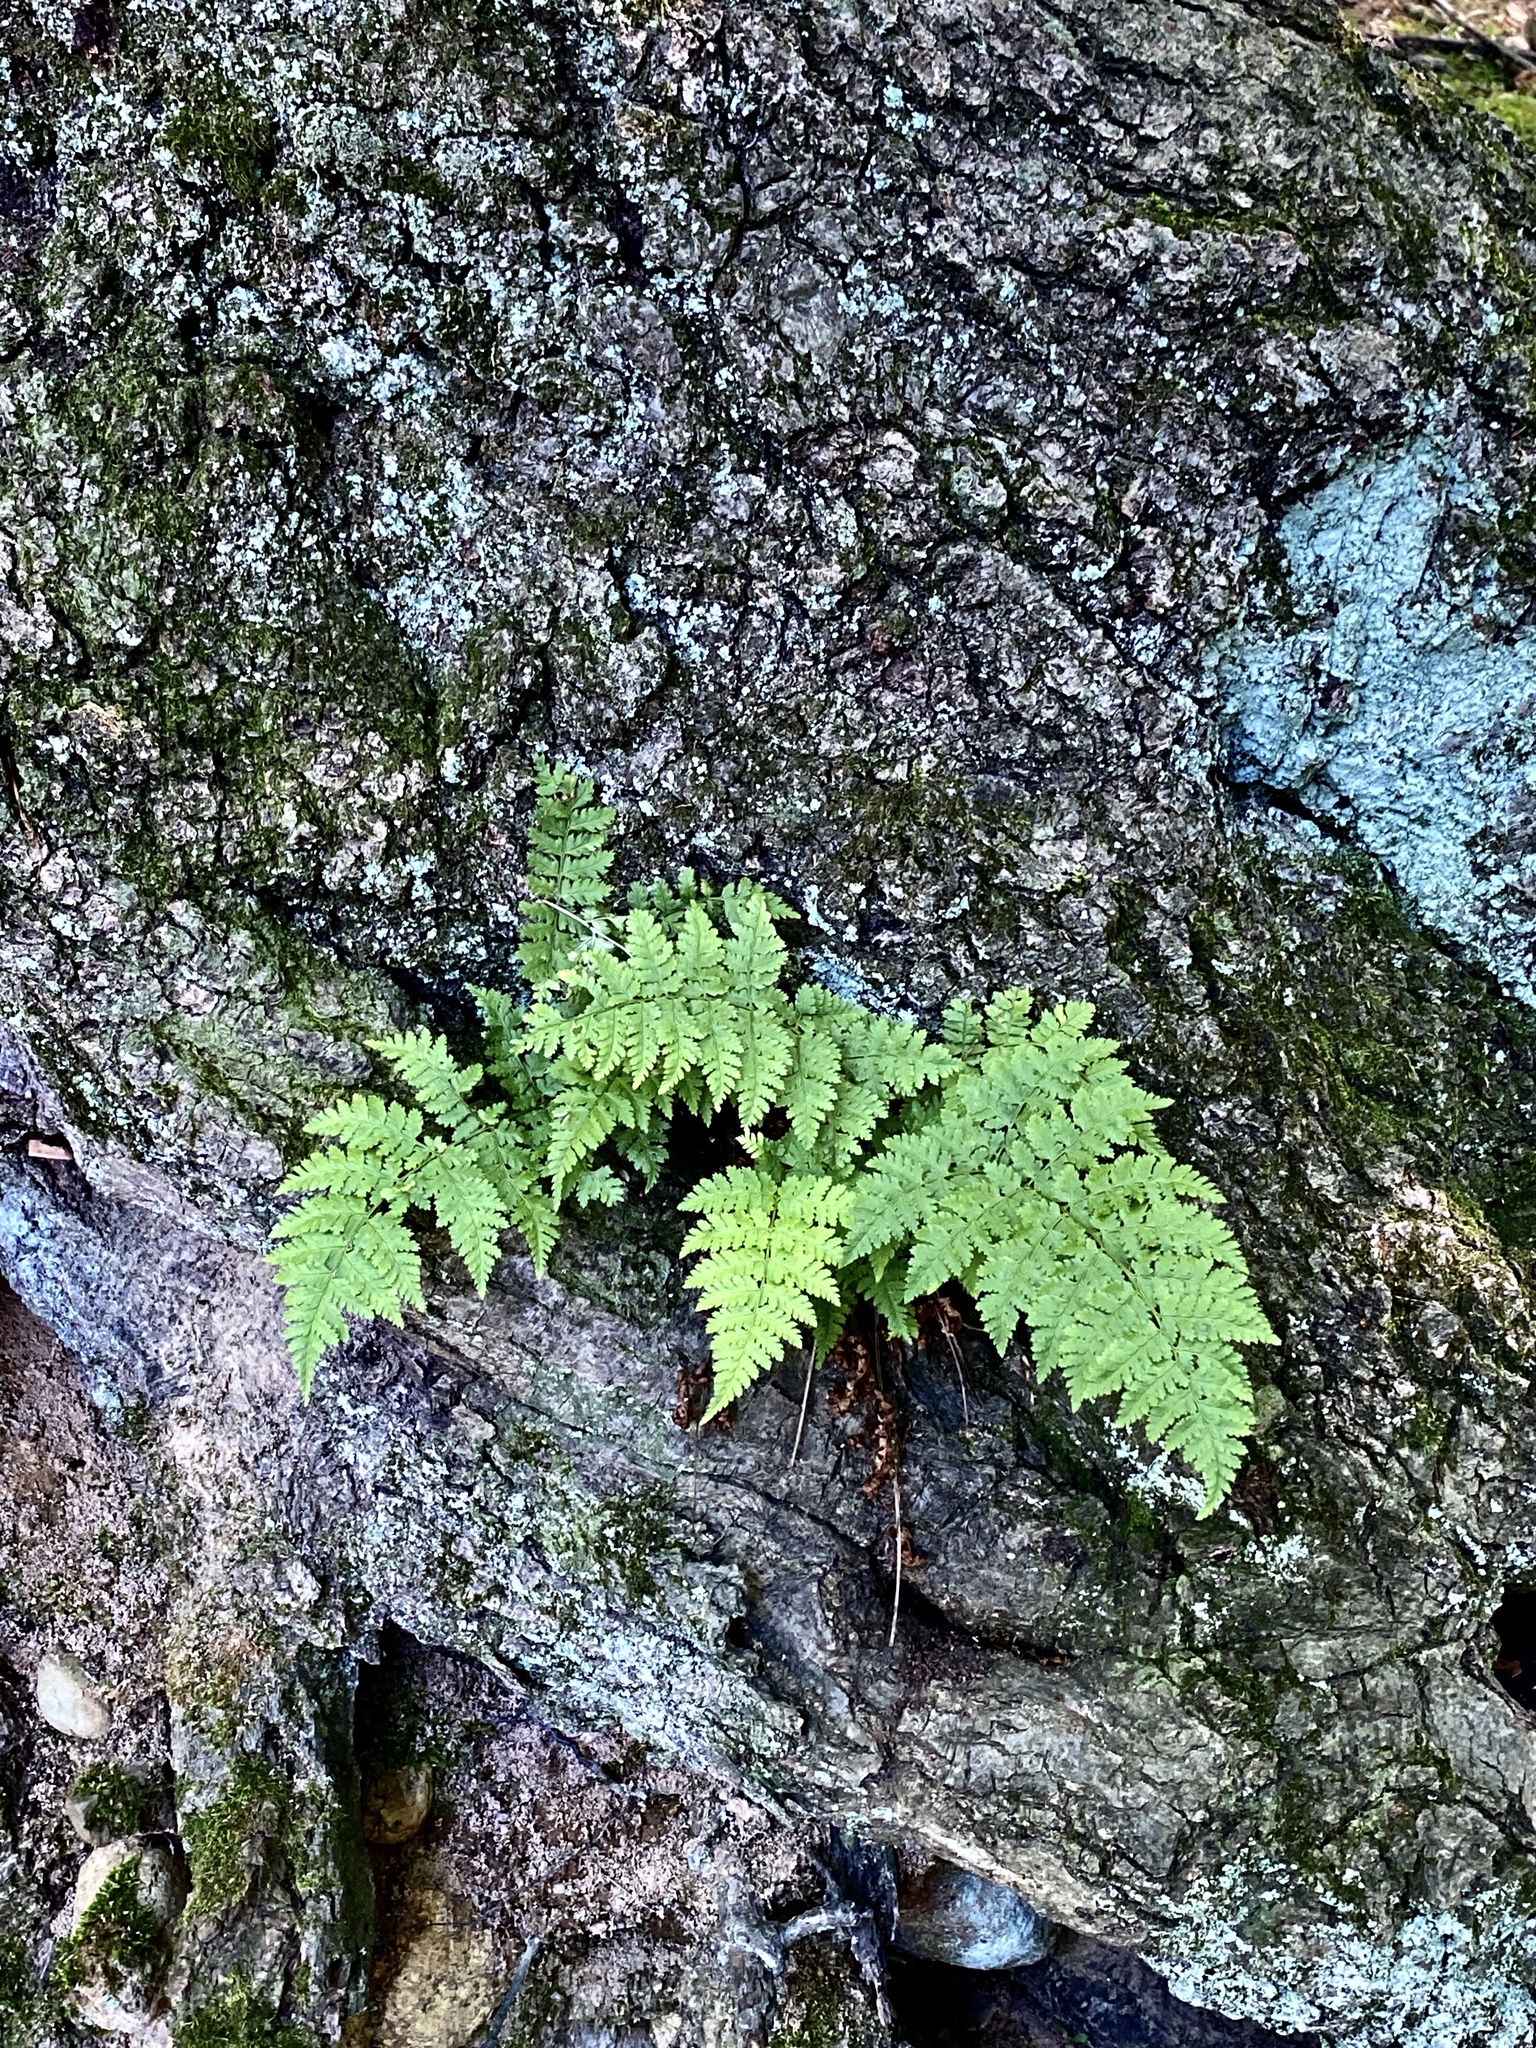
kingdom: Plantae
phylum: Tracheophyta
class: Polypodiopsida
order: Polypodiales
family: Dryopteridaceae
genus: Dryopteris
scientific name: Dryopteris intermedia
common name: Evergreen wood fern
